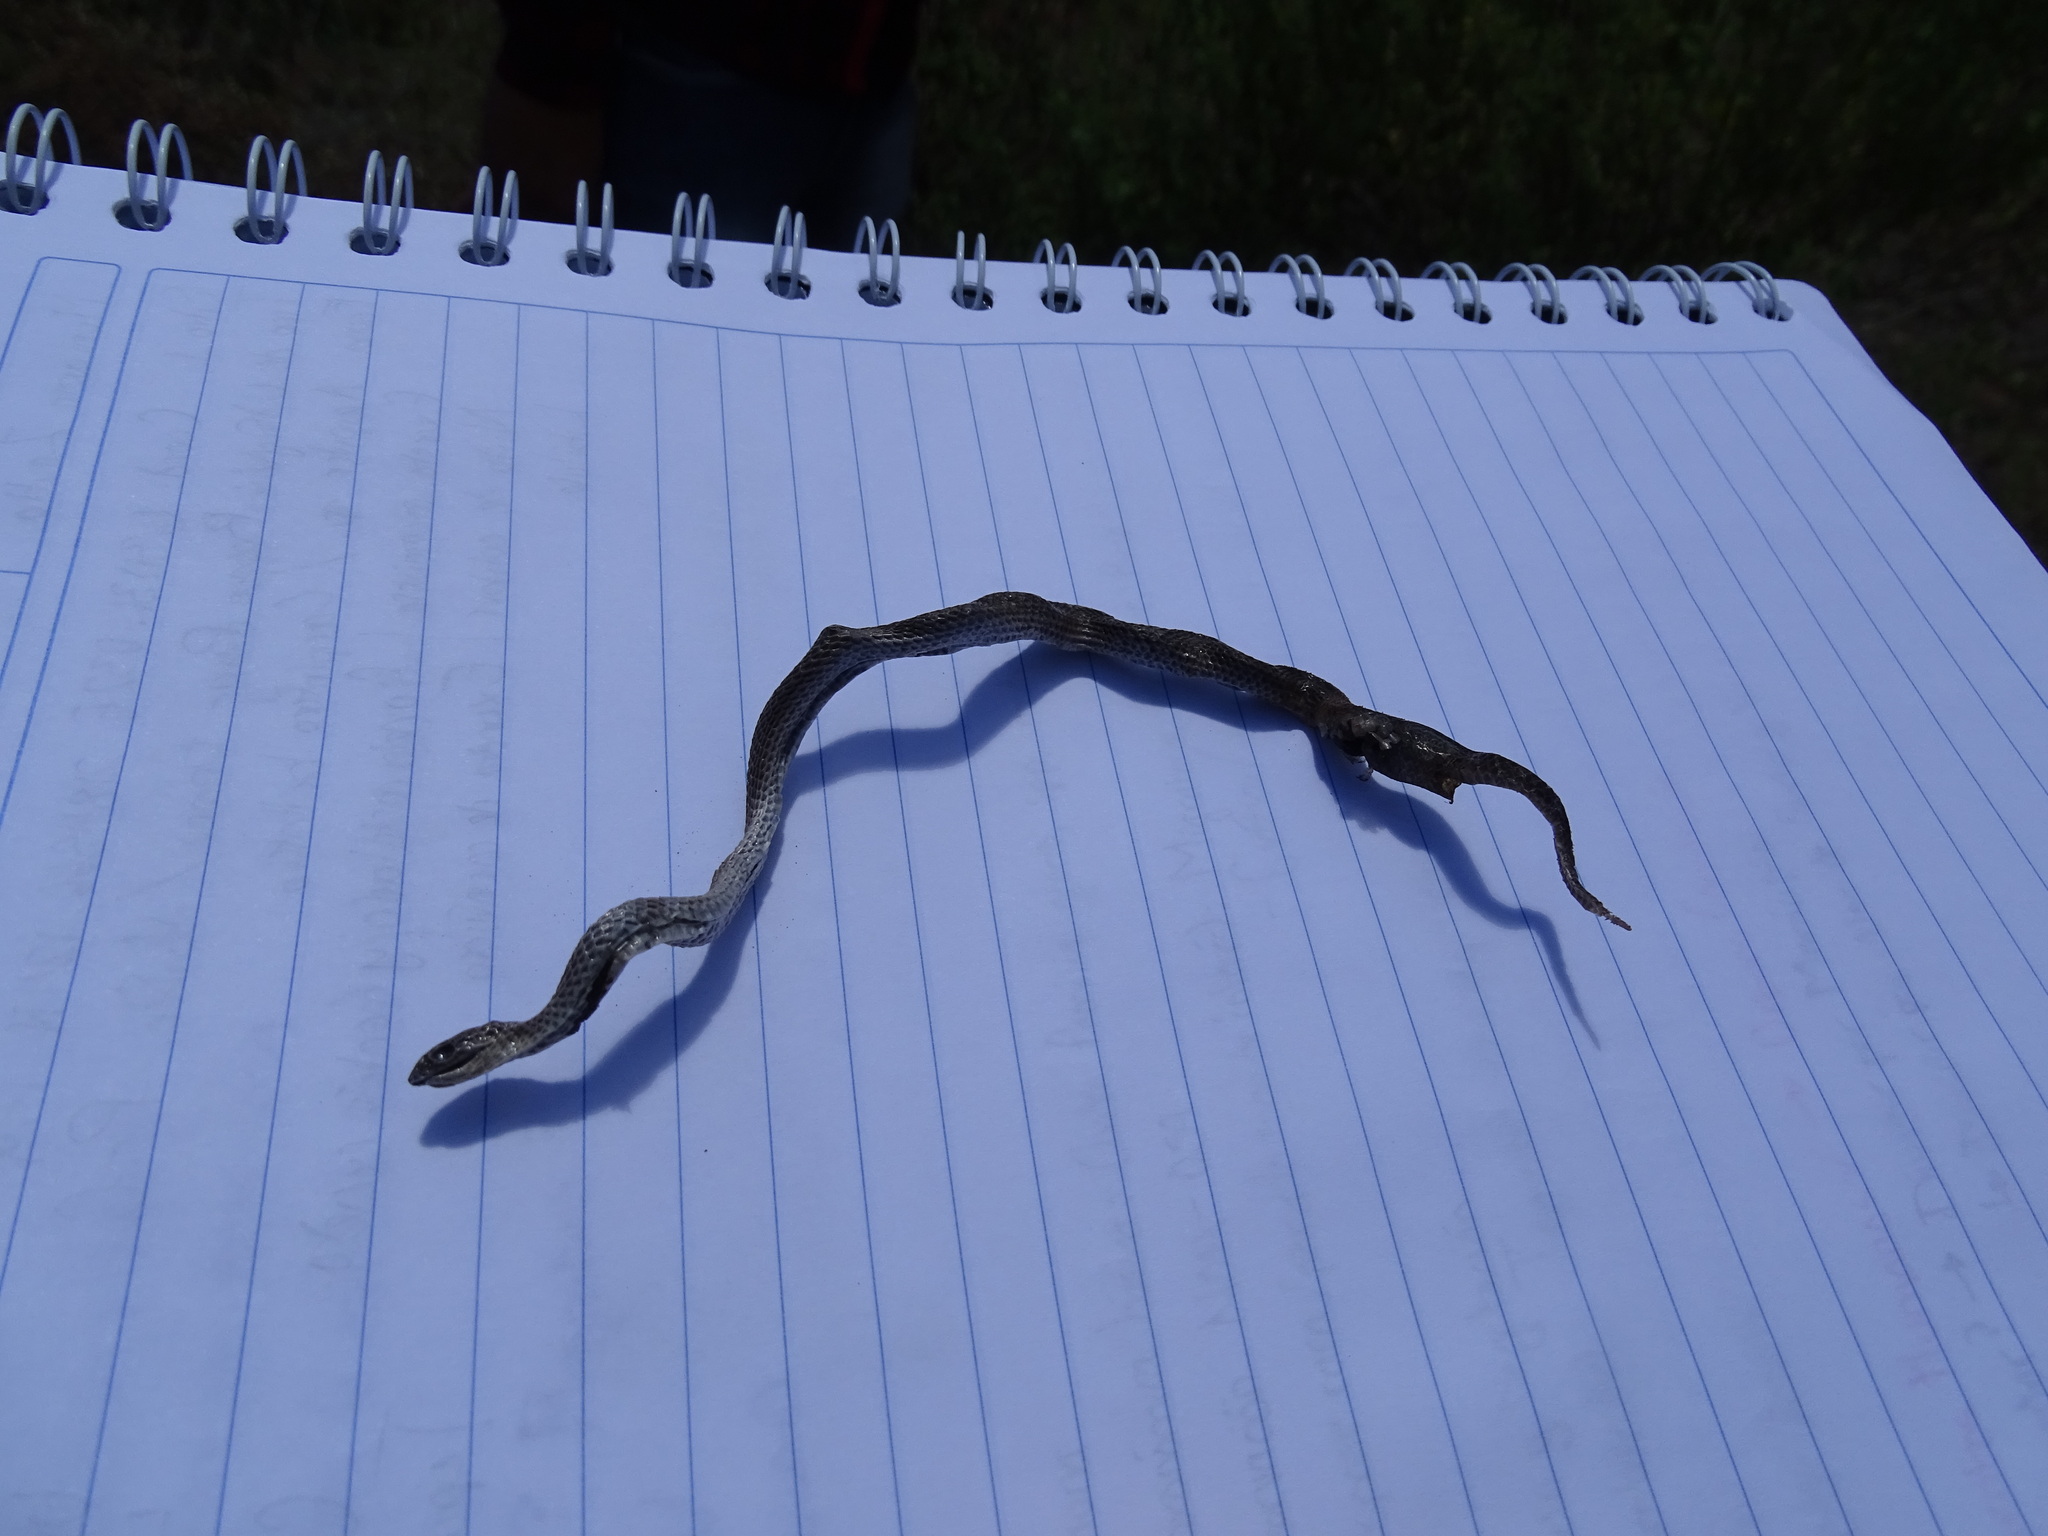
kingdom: Animalia
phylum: Chordata
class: Squamata
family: Colubridae
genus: Conopsis
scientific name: Conopsis lineata
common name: Lined tolucan earthsnake
